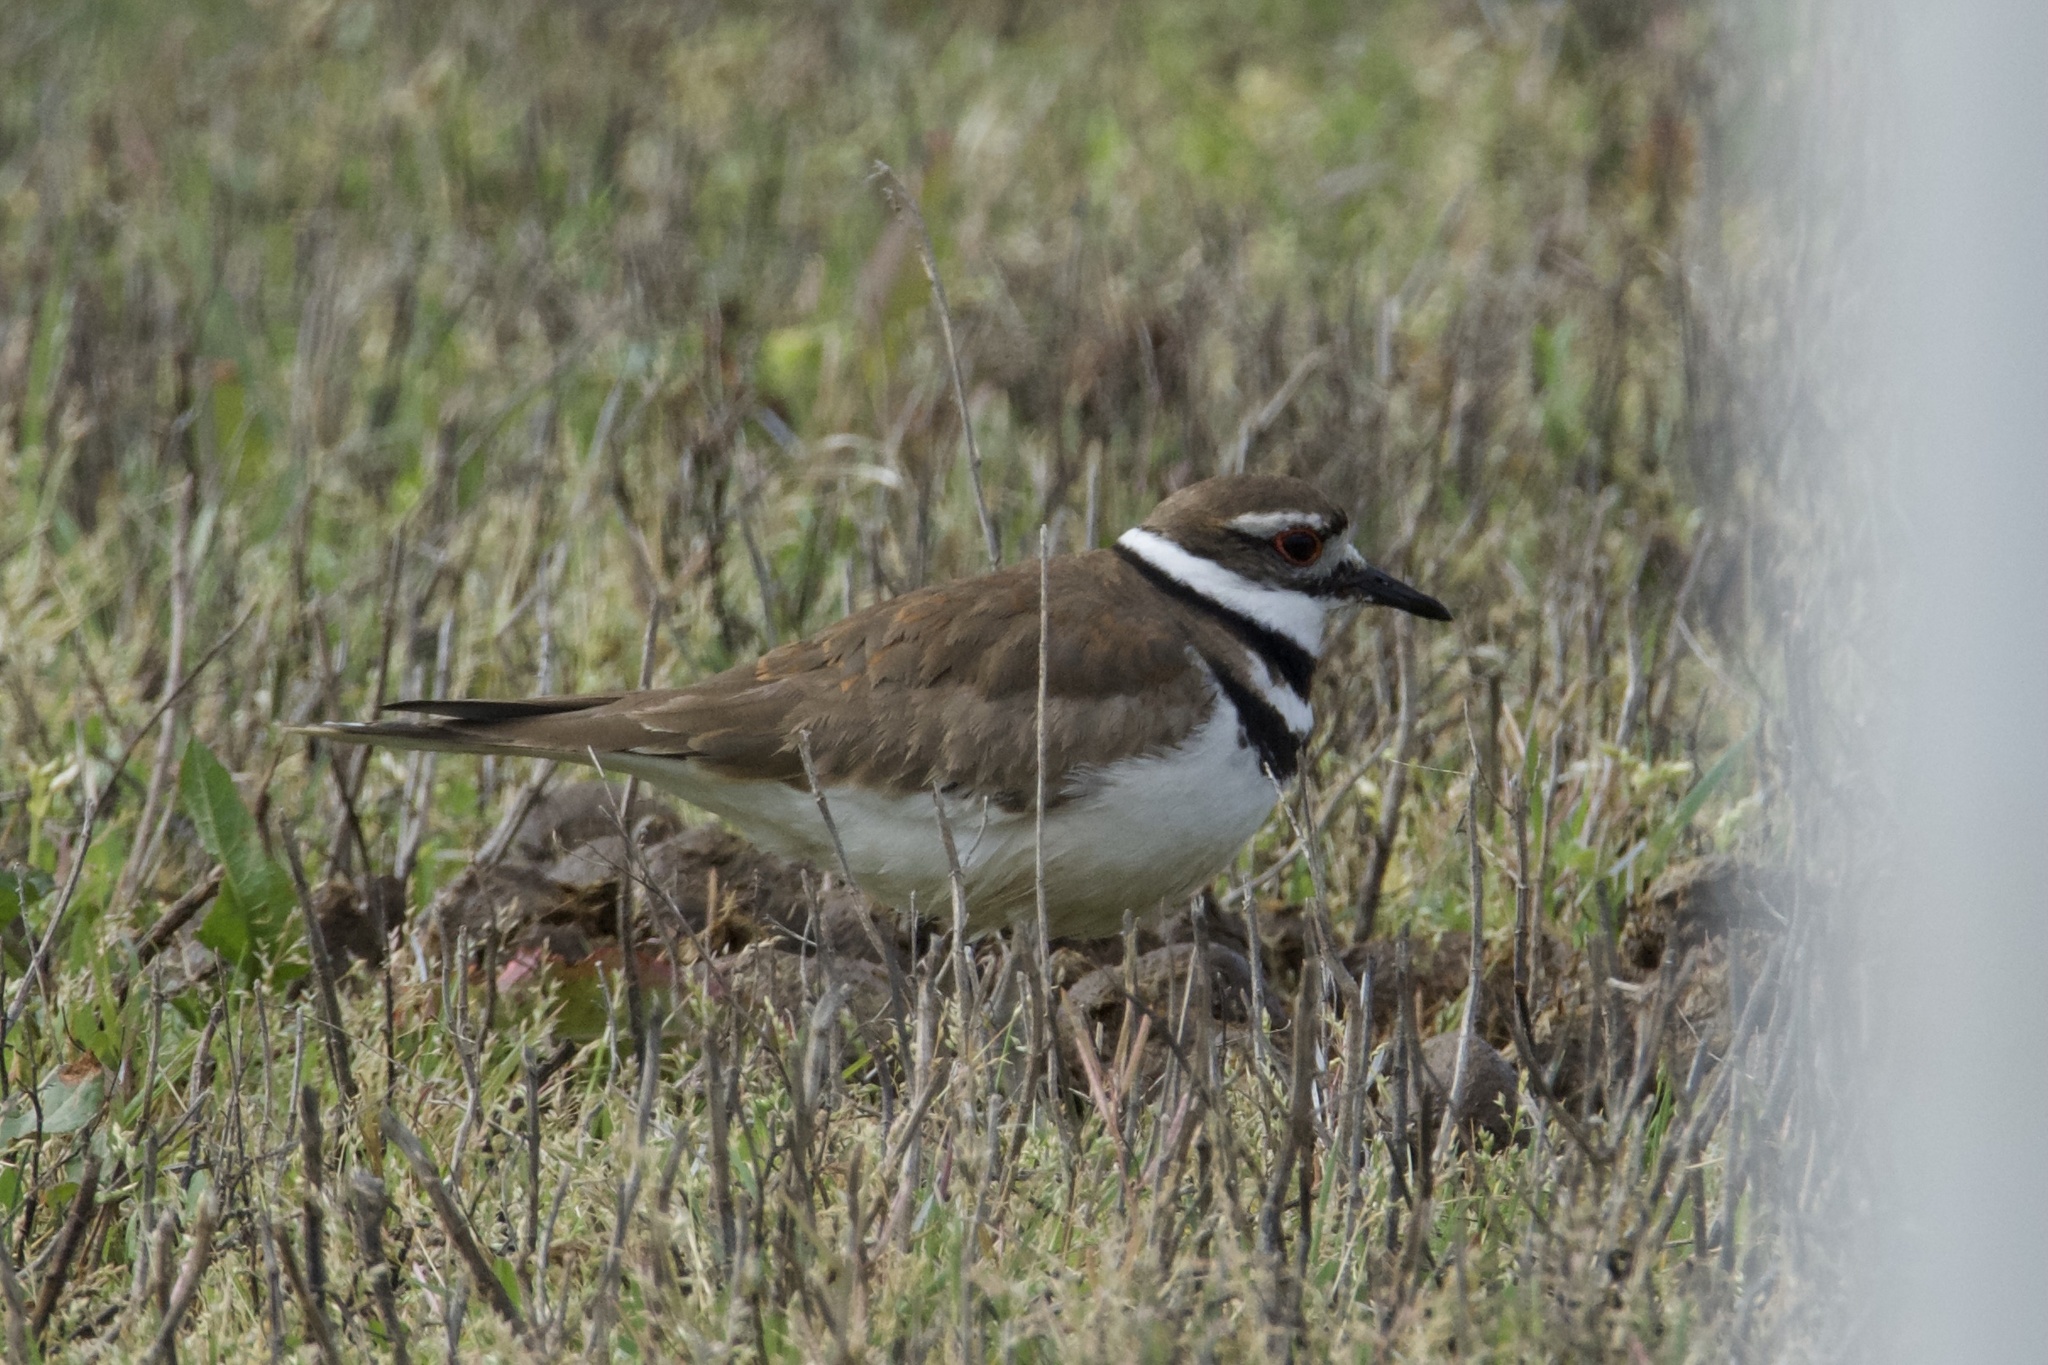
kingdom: Animalia
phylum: Chordata
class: Aves
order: Charadriiformes
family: Charadriidae
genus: Charadrius
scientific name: Charadrius vociferus
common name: Killdeer
